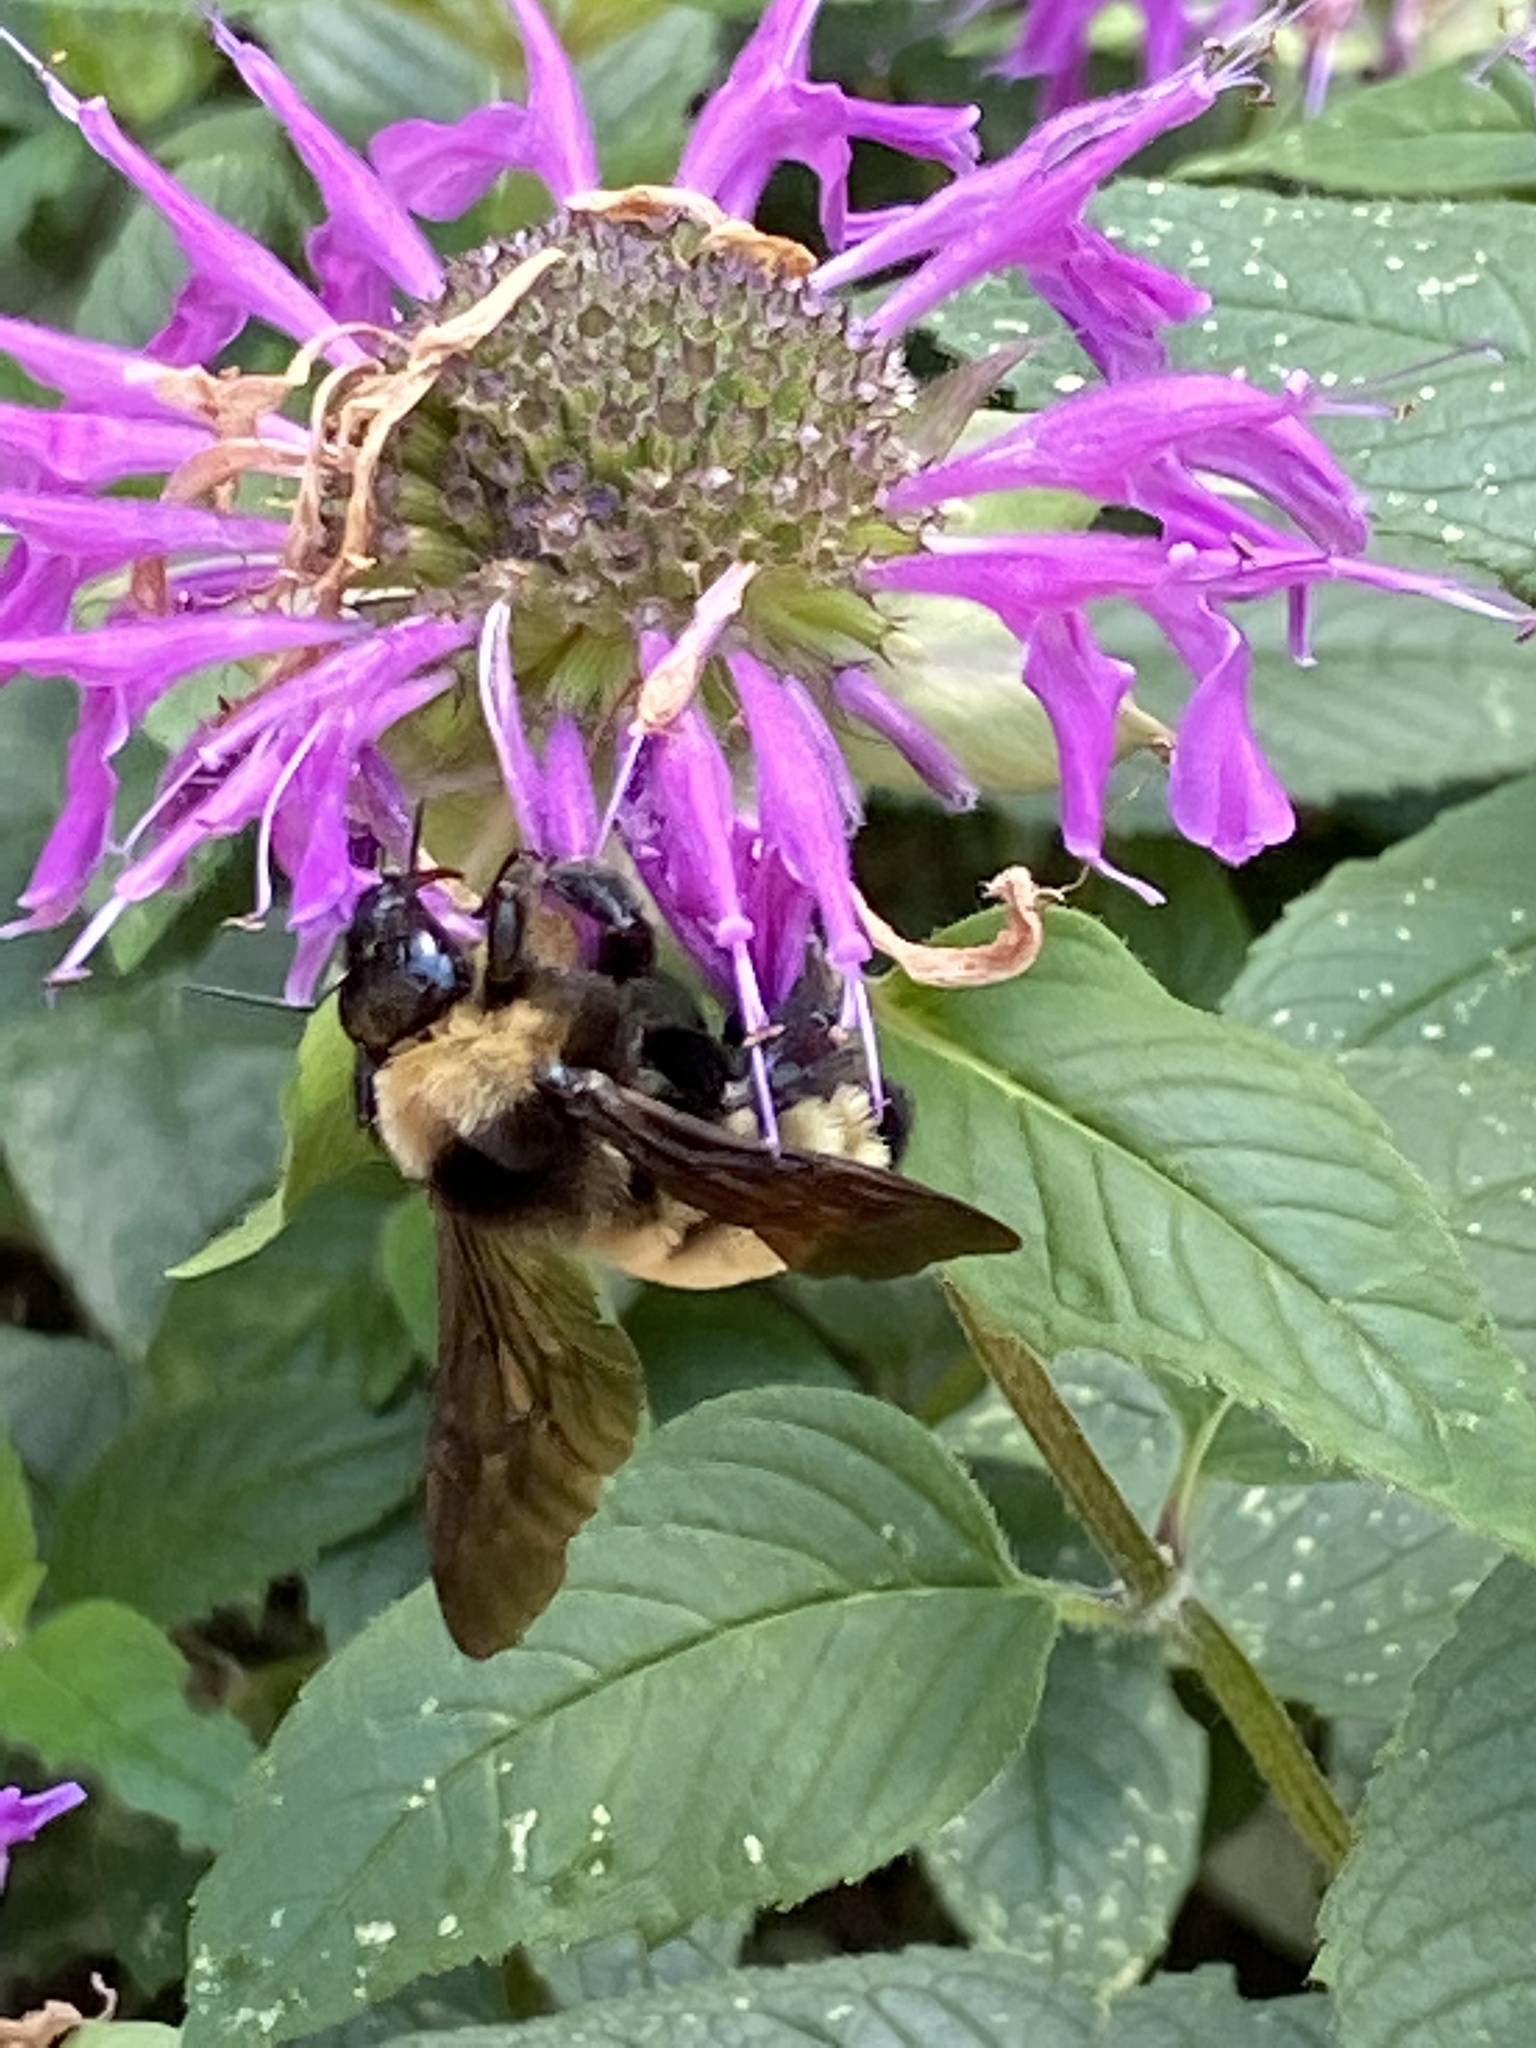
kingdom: Animalia
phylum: Arthropoda
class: Insecta
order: Hymenoptera
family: Apidae
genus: Bombus
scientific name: Bombus pensylvanicus
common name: Bumble bee
